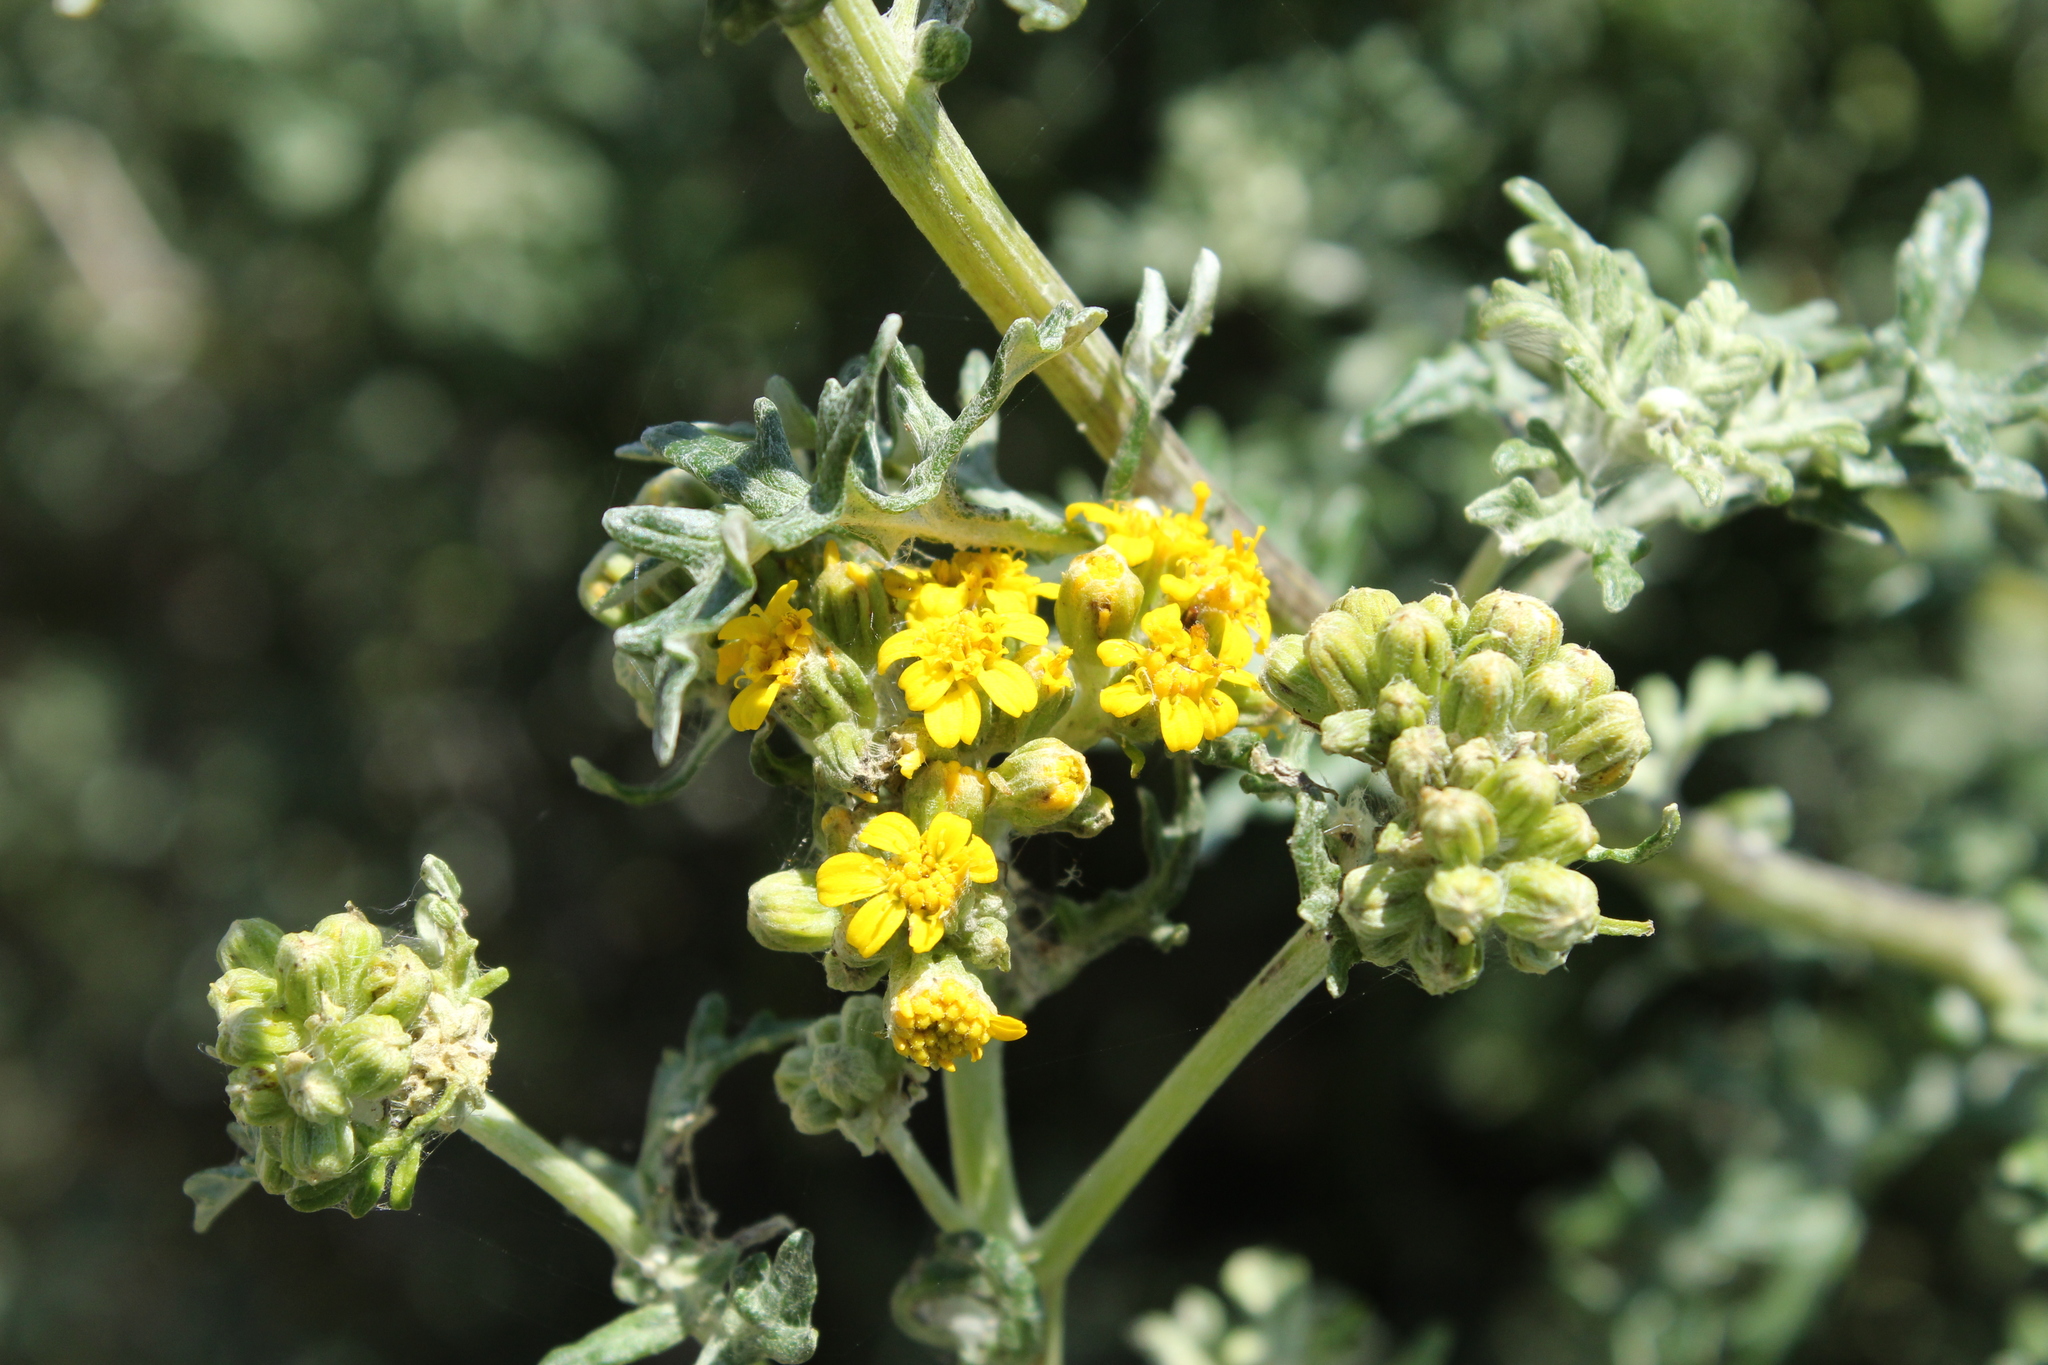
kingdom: Plantae
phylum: Tracheophyta
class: Magnoliopsida
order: Asterales
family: Asteraceae
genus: Eriophyllum
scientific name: Eriophyllum staechadifolium
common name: Lizardtail
